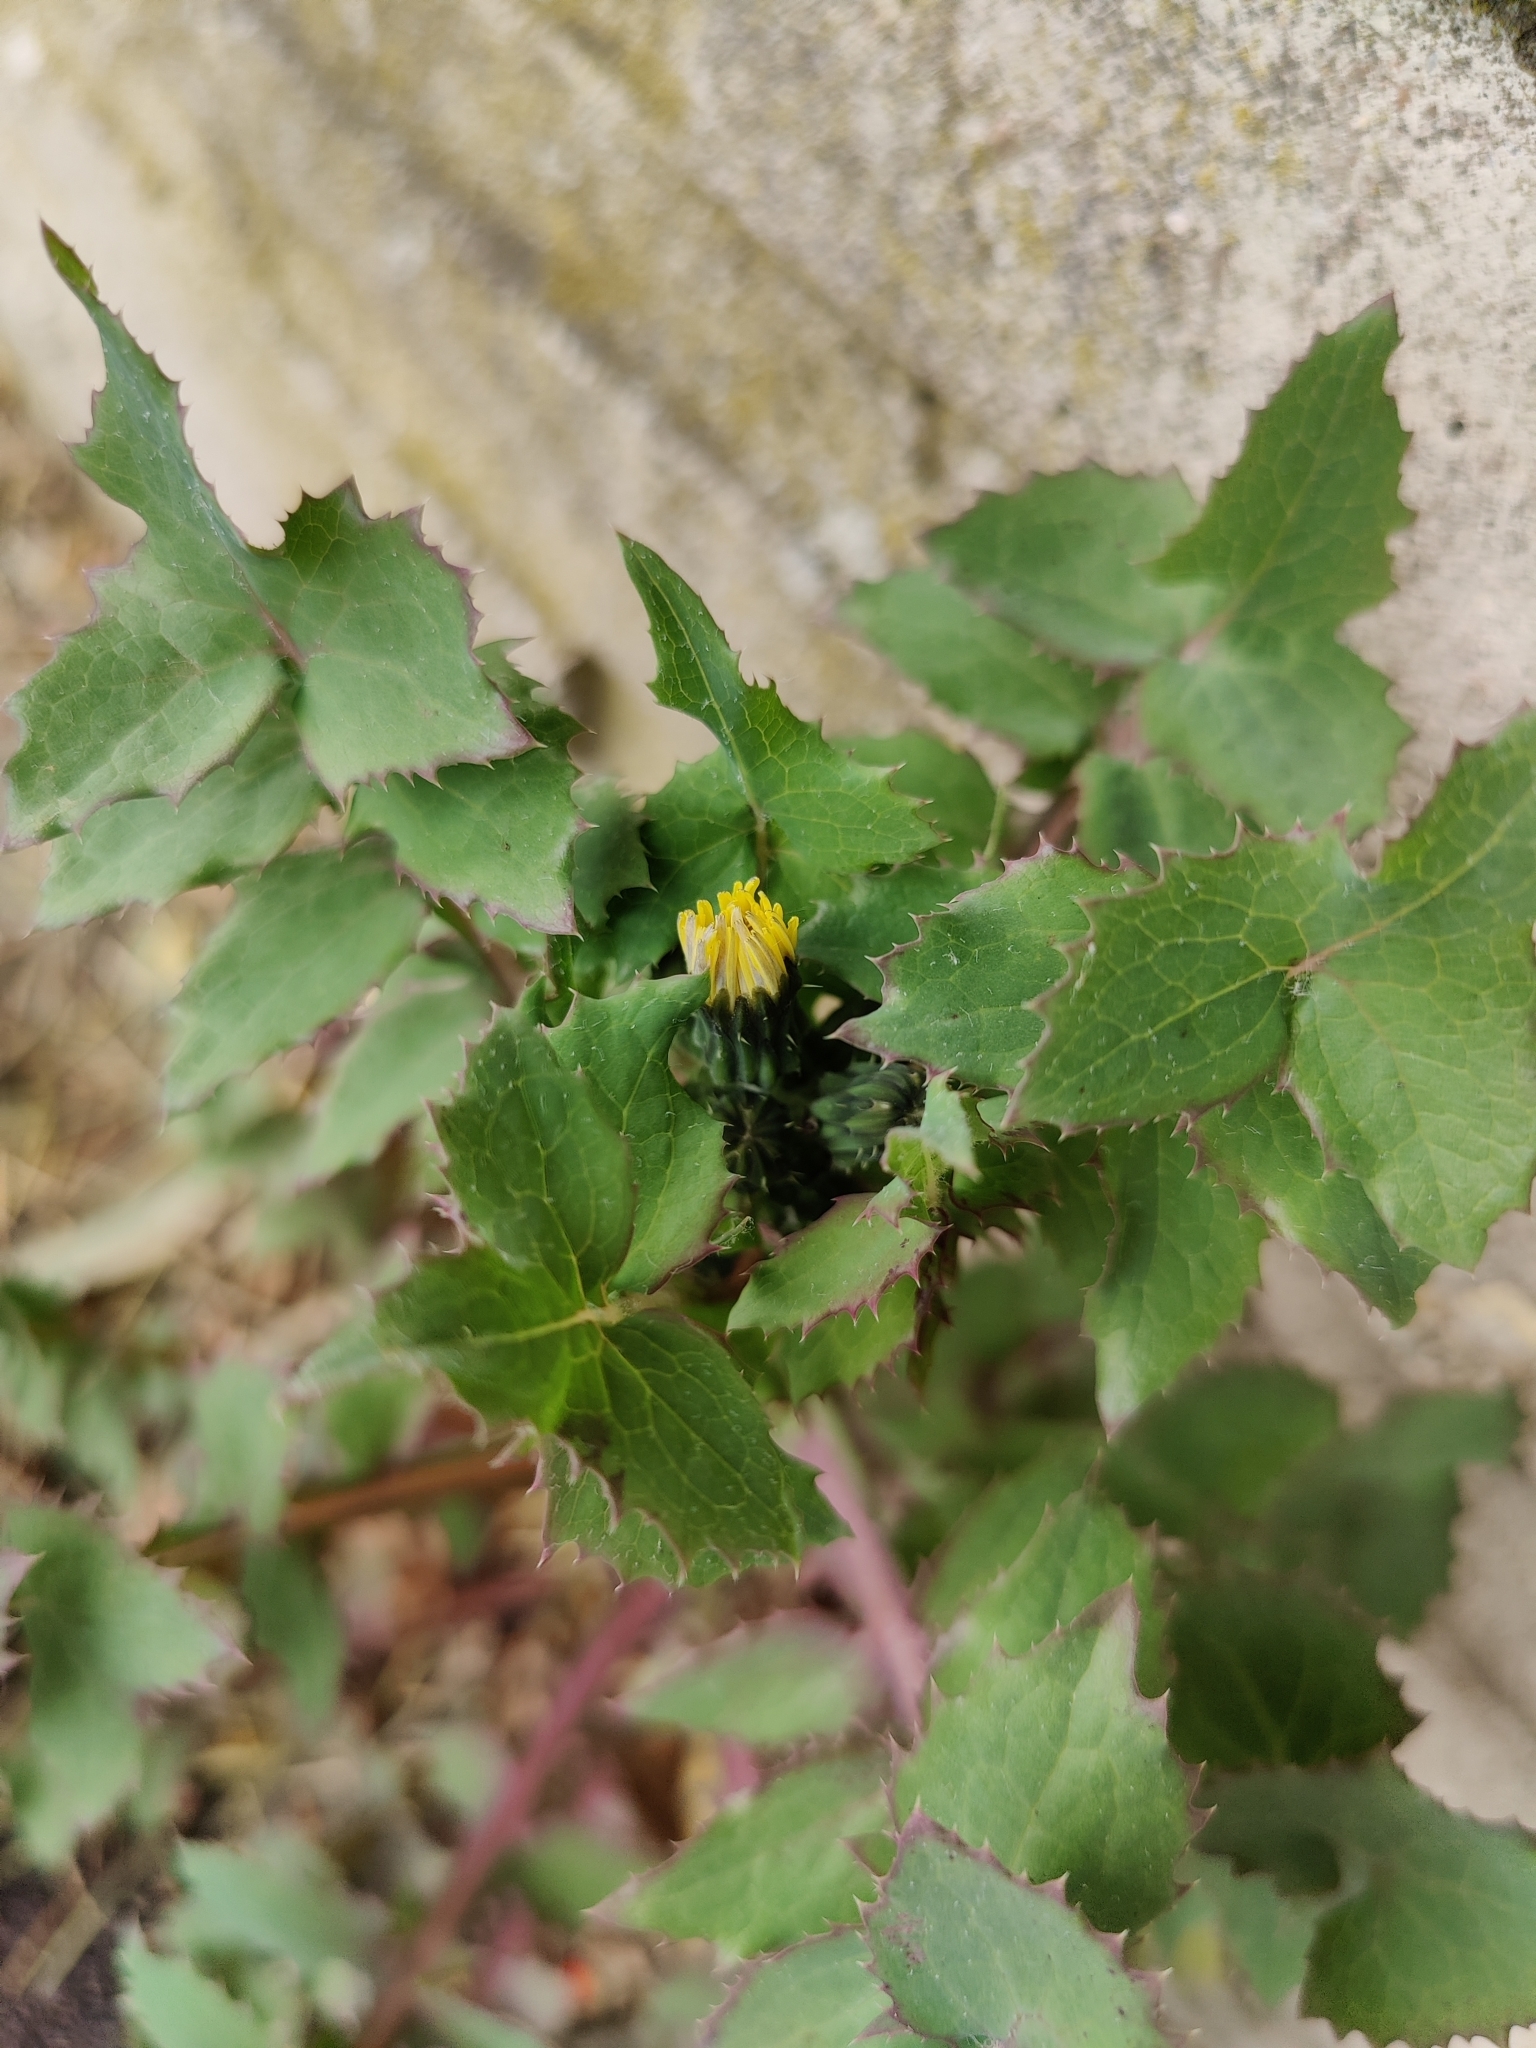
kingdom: Plantae
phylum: Tracheophyta
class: Magnoliopsida
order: Asterales
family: Asteraceae
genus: Sonchus
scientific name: Sonchus oleraceus
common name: Common sowthistle
